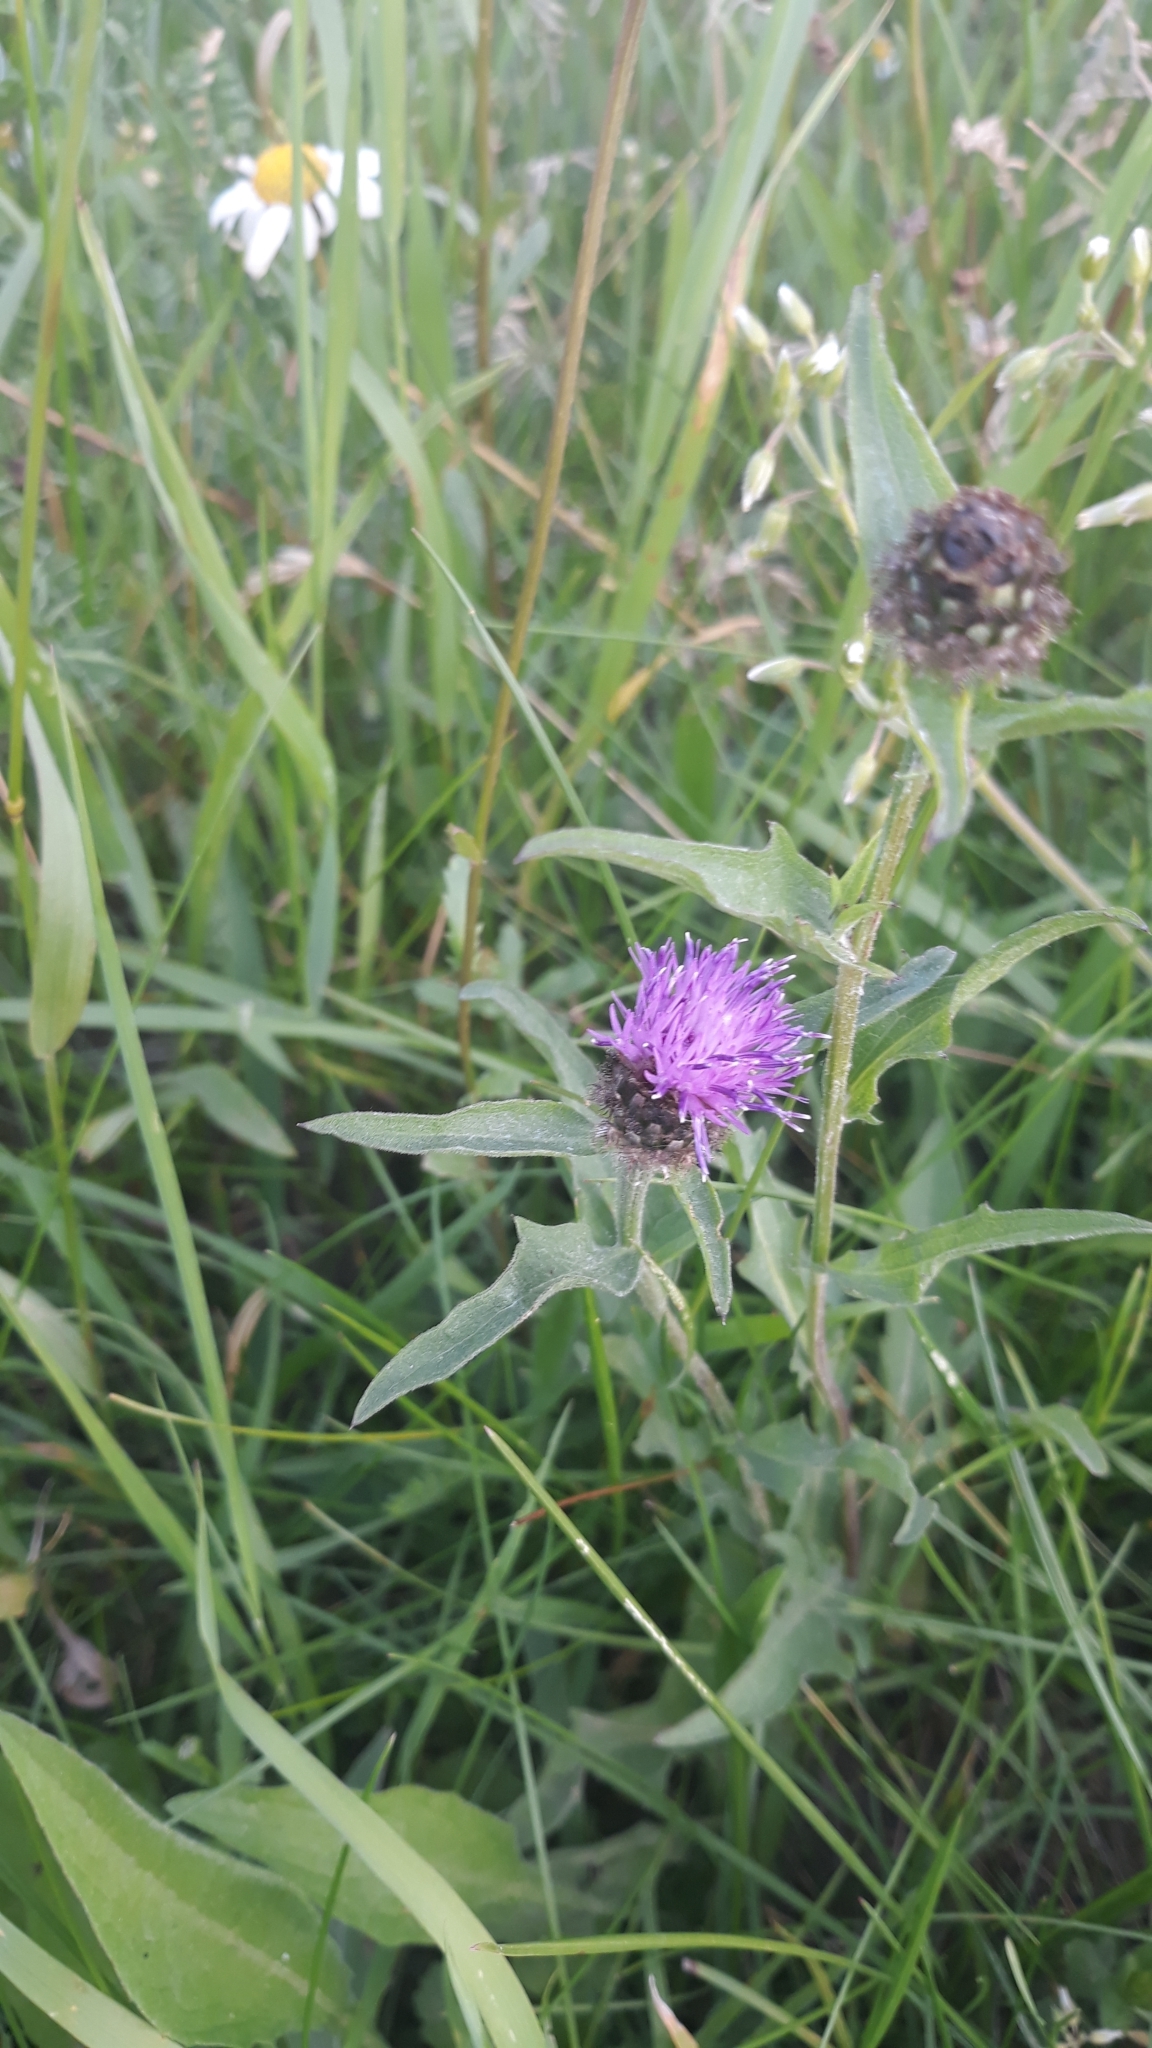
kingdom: Plantae
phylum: Tracheophyta
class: Magnoliopsida
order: Asterales
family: Asteraceae
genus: Centaurea
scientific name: Centaurea jacea
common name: Brown knapweed
